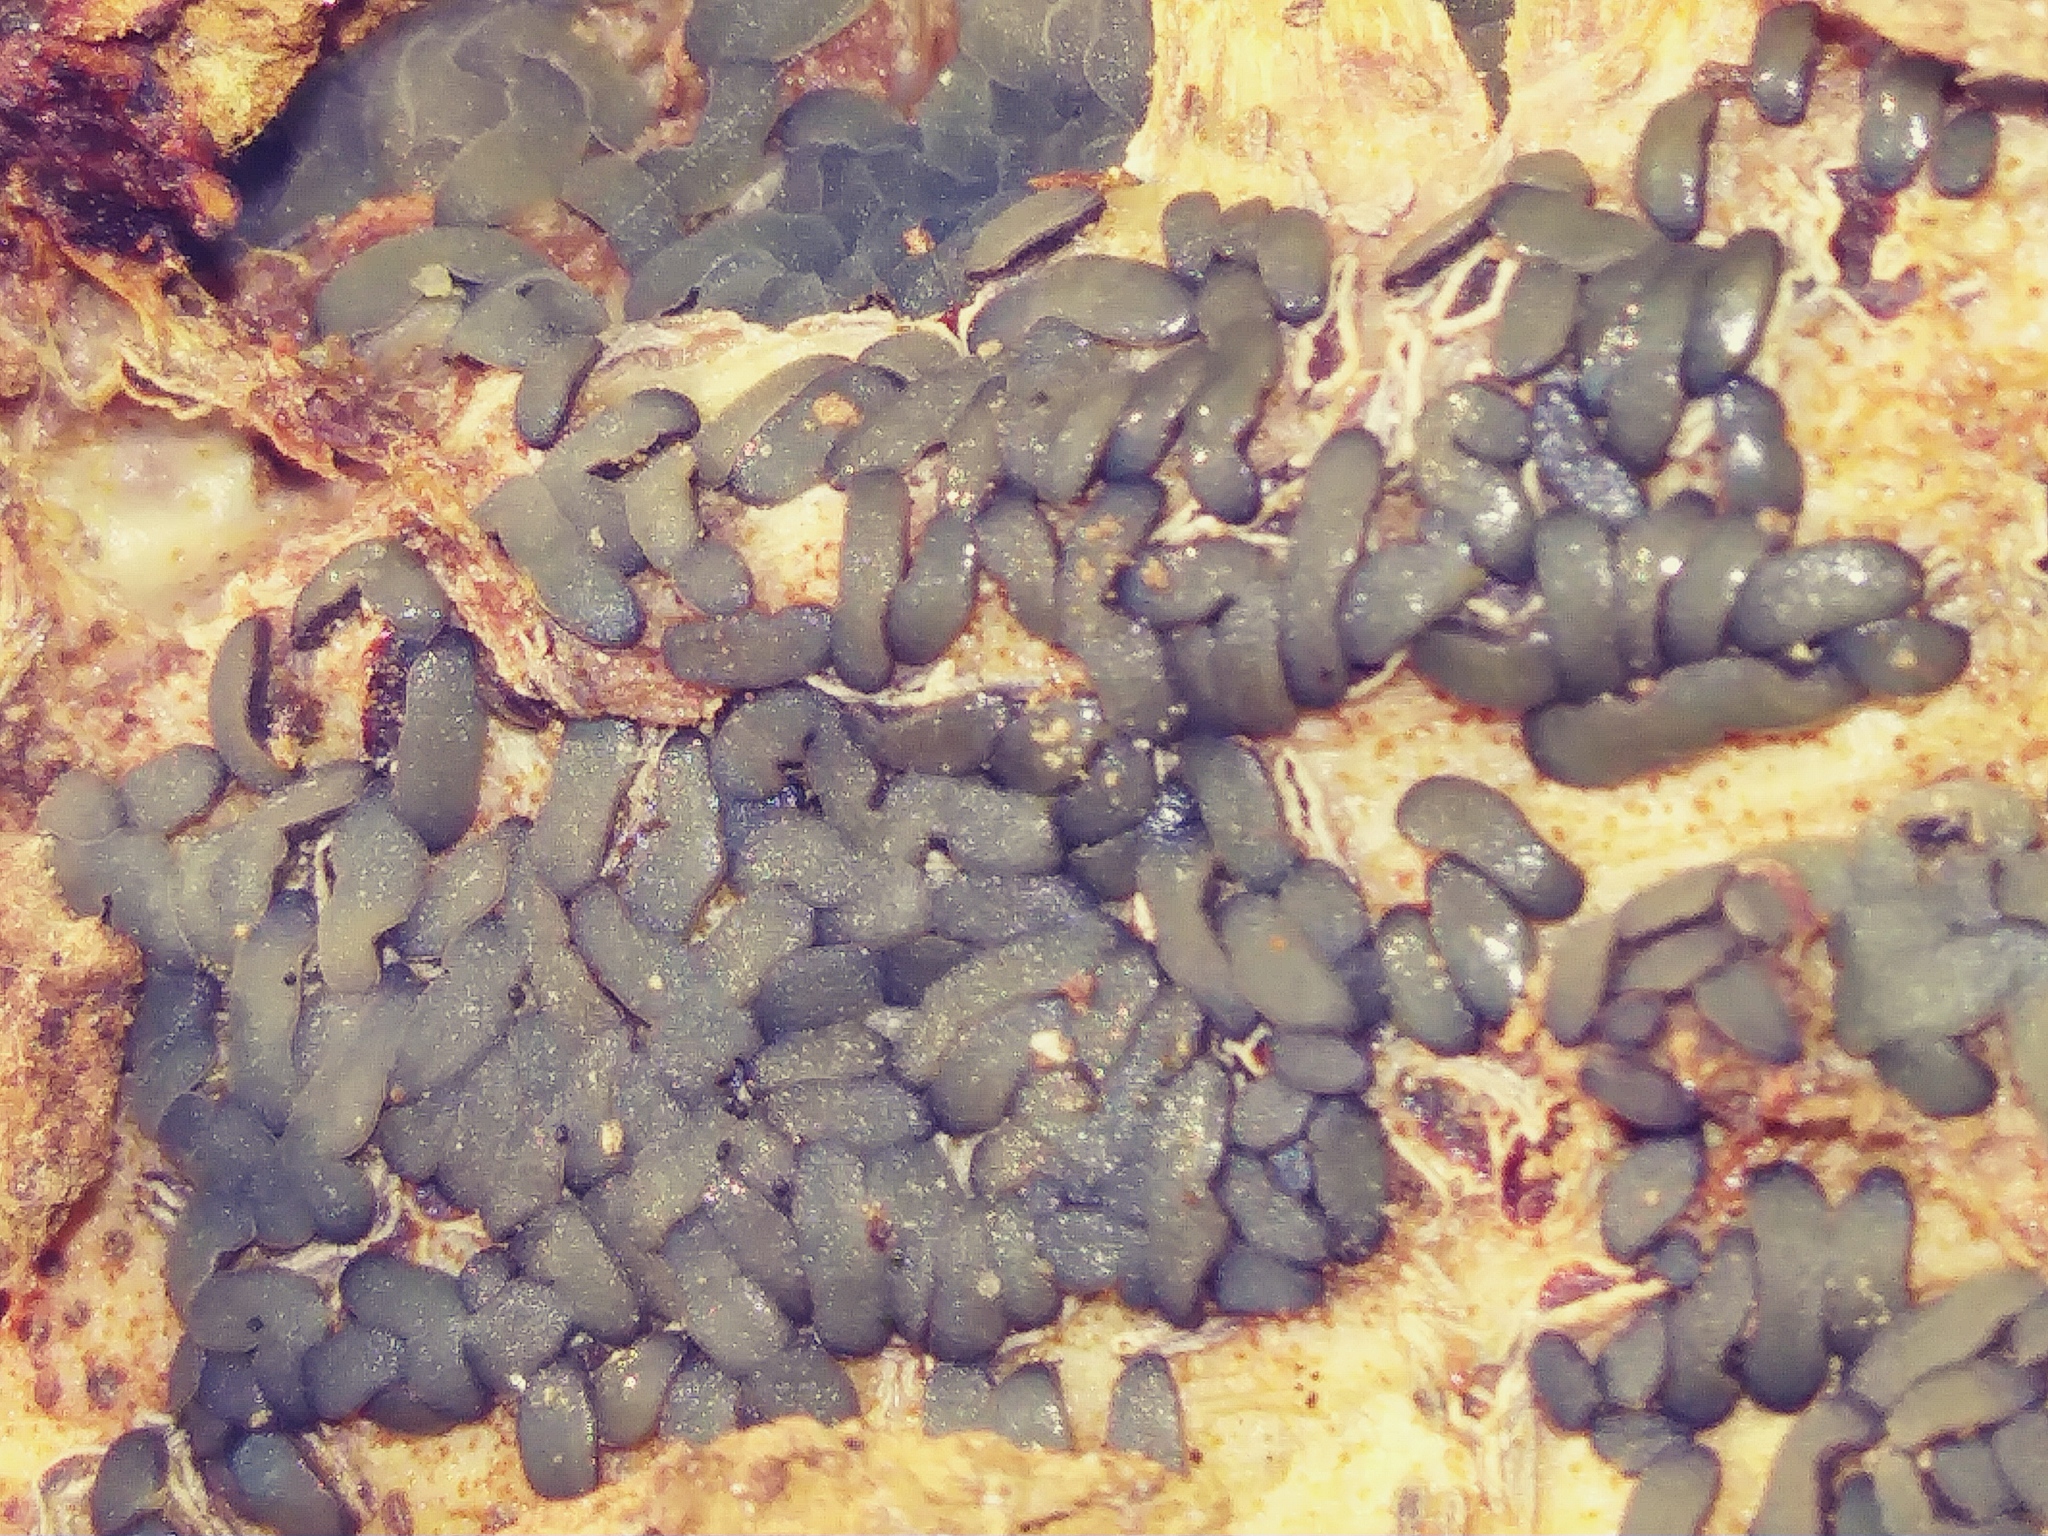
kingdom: Fungi
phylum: Ascomycota
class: Leotiomycetes
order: Helotiales
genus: Angelina
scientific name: Angelina rufescens
